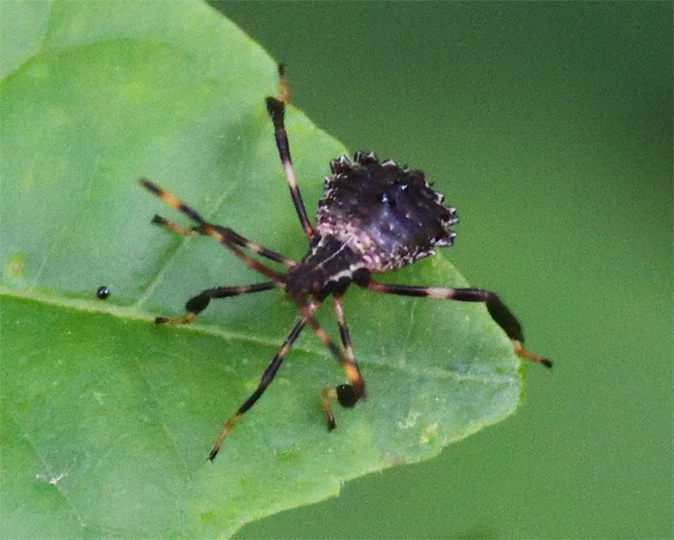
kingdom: Animalia
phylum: Arthropoda
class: Insecta
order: Hemiptera
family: Coreidae
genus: Acanthocephala
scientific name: Acanthocephala terminalis
